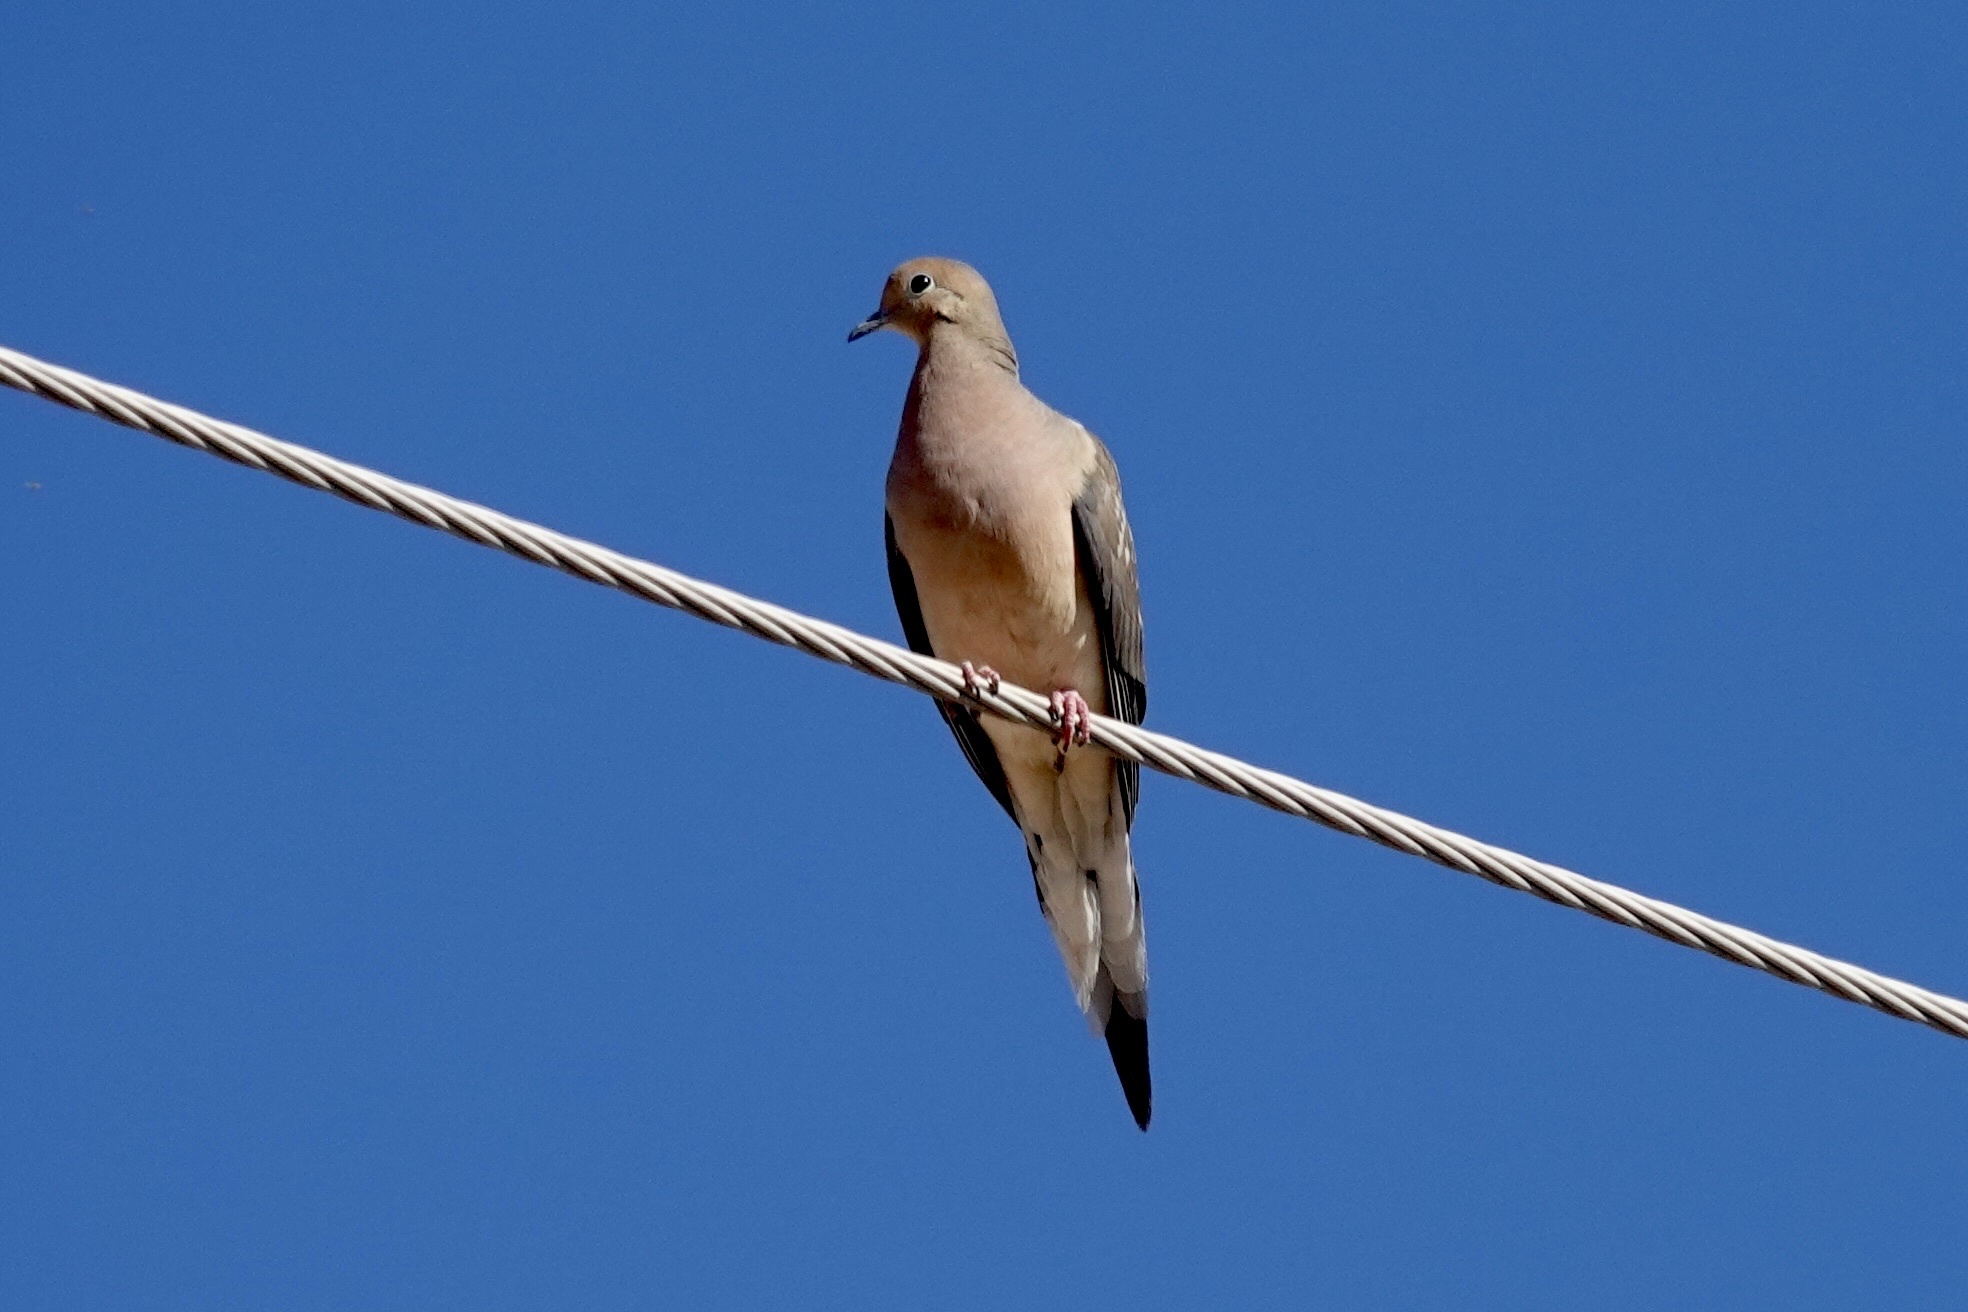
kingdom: Animalia
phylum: Chordata
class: Aves
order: Columbiformes
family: Columbidae
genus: Zenaida
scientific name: Zenaida macroura
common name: Mourning dove
